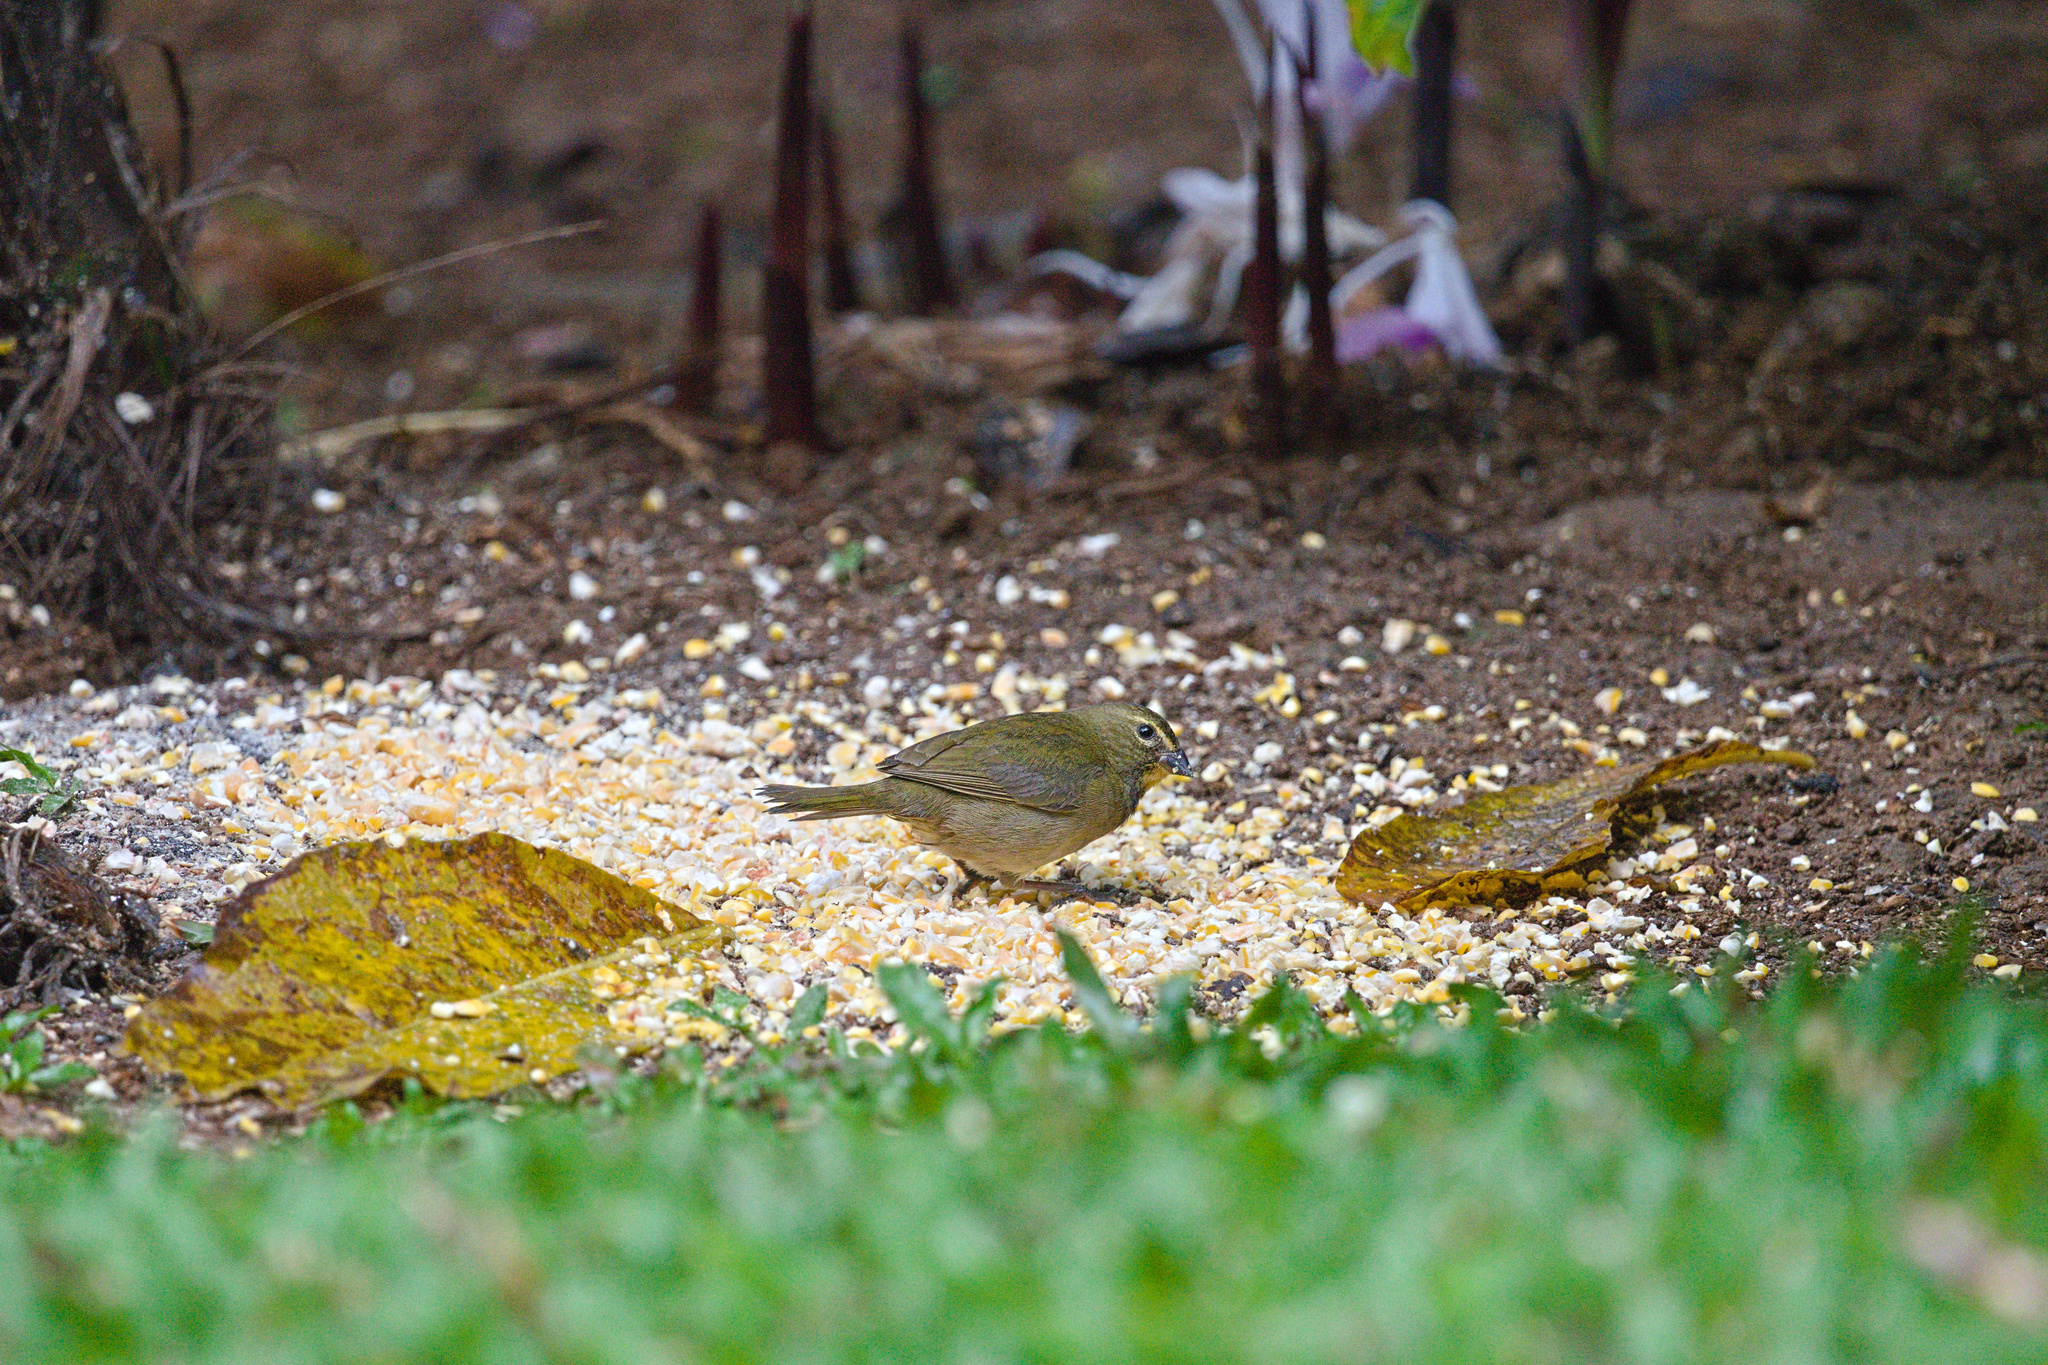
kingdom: Animalia
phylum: Chordata
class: Aves
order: Passeriformes
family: Thraupidae
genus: Tiaris
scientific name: Tiaris olivaceus
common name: Yellow-faced grassquit
